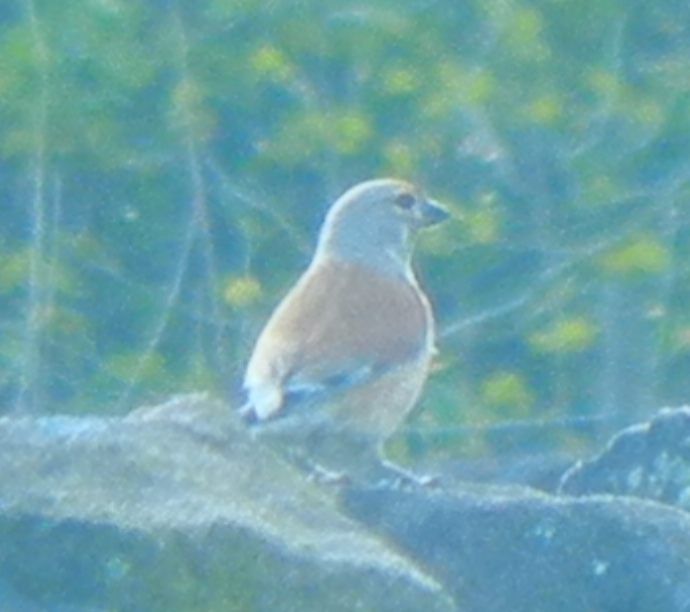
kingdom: Animalia
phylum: Chordata
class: Aves
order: Passeriformes
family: Fringillidae
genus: Linaria
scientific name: Linaria cannabina
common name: Common linnet
